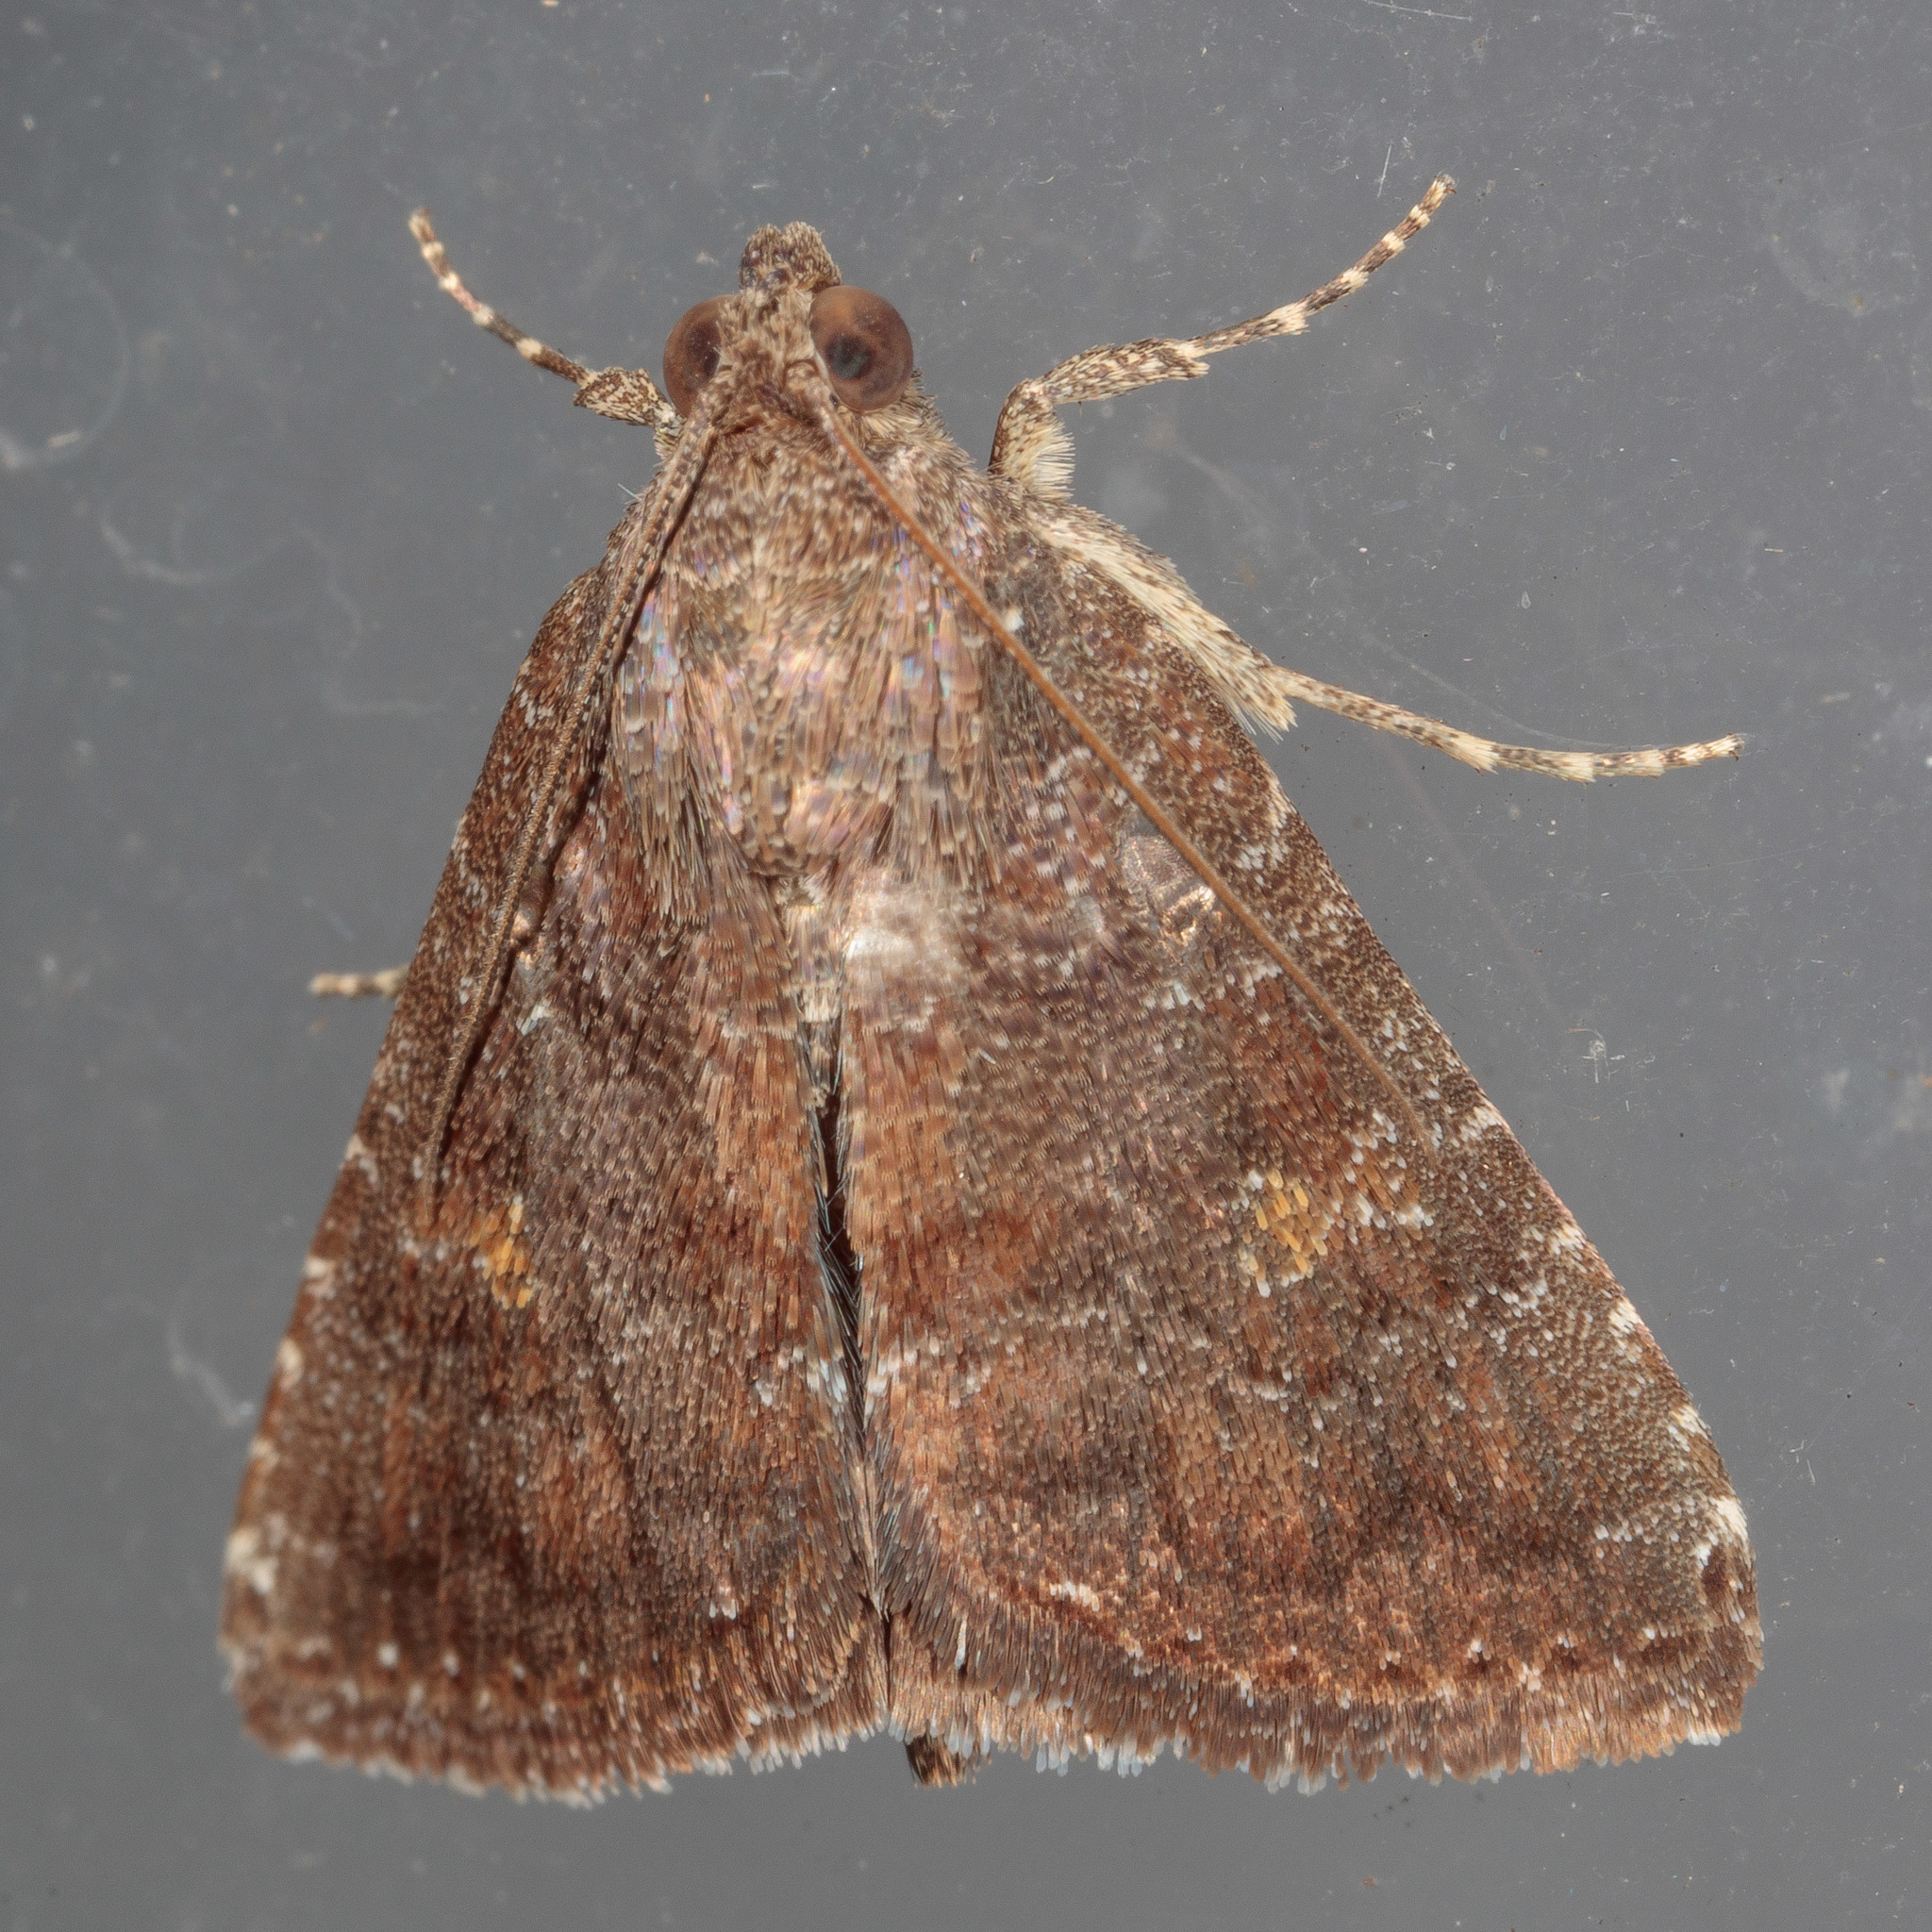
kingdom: Animalia
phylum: Arthropoda
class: Insecta
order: Lepidoptera
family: Noctuidae
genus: Amyna
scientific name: Amyna stricta
